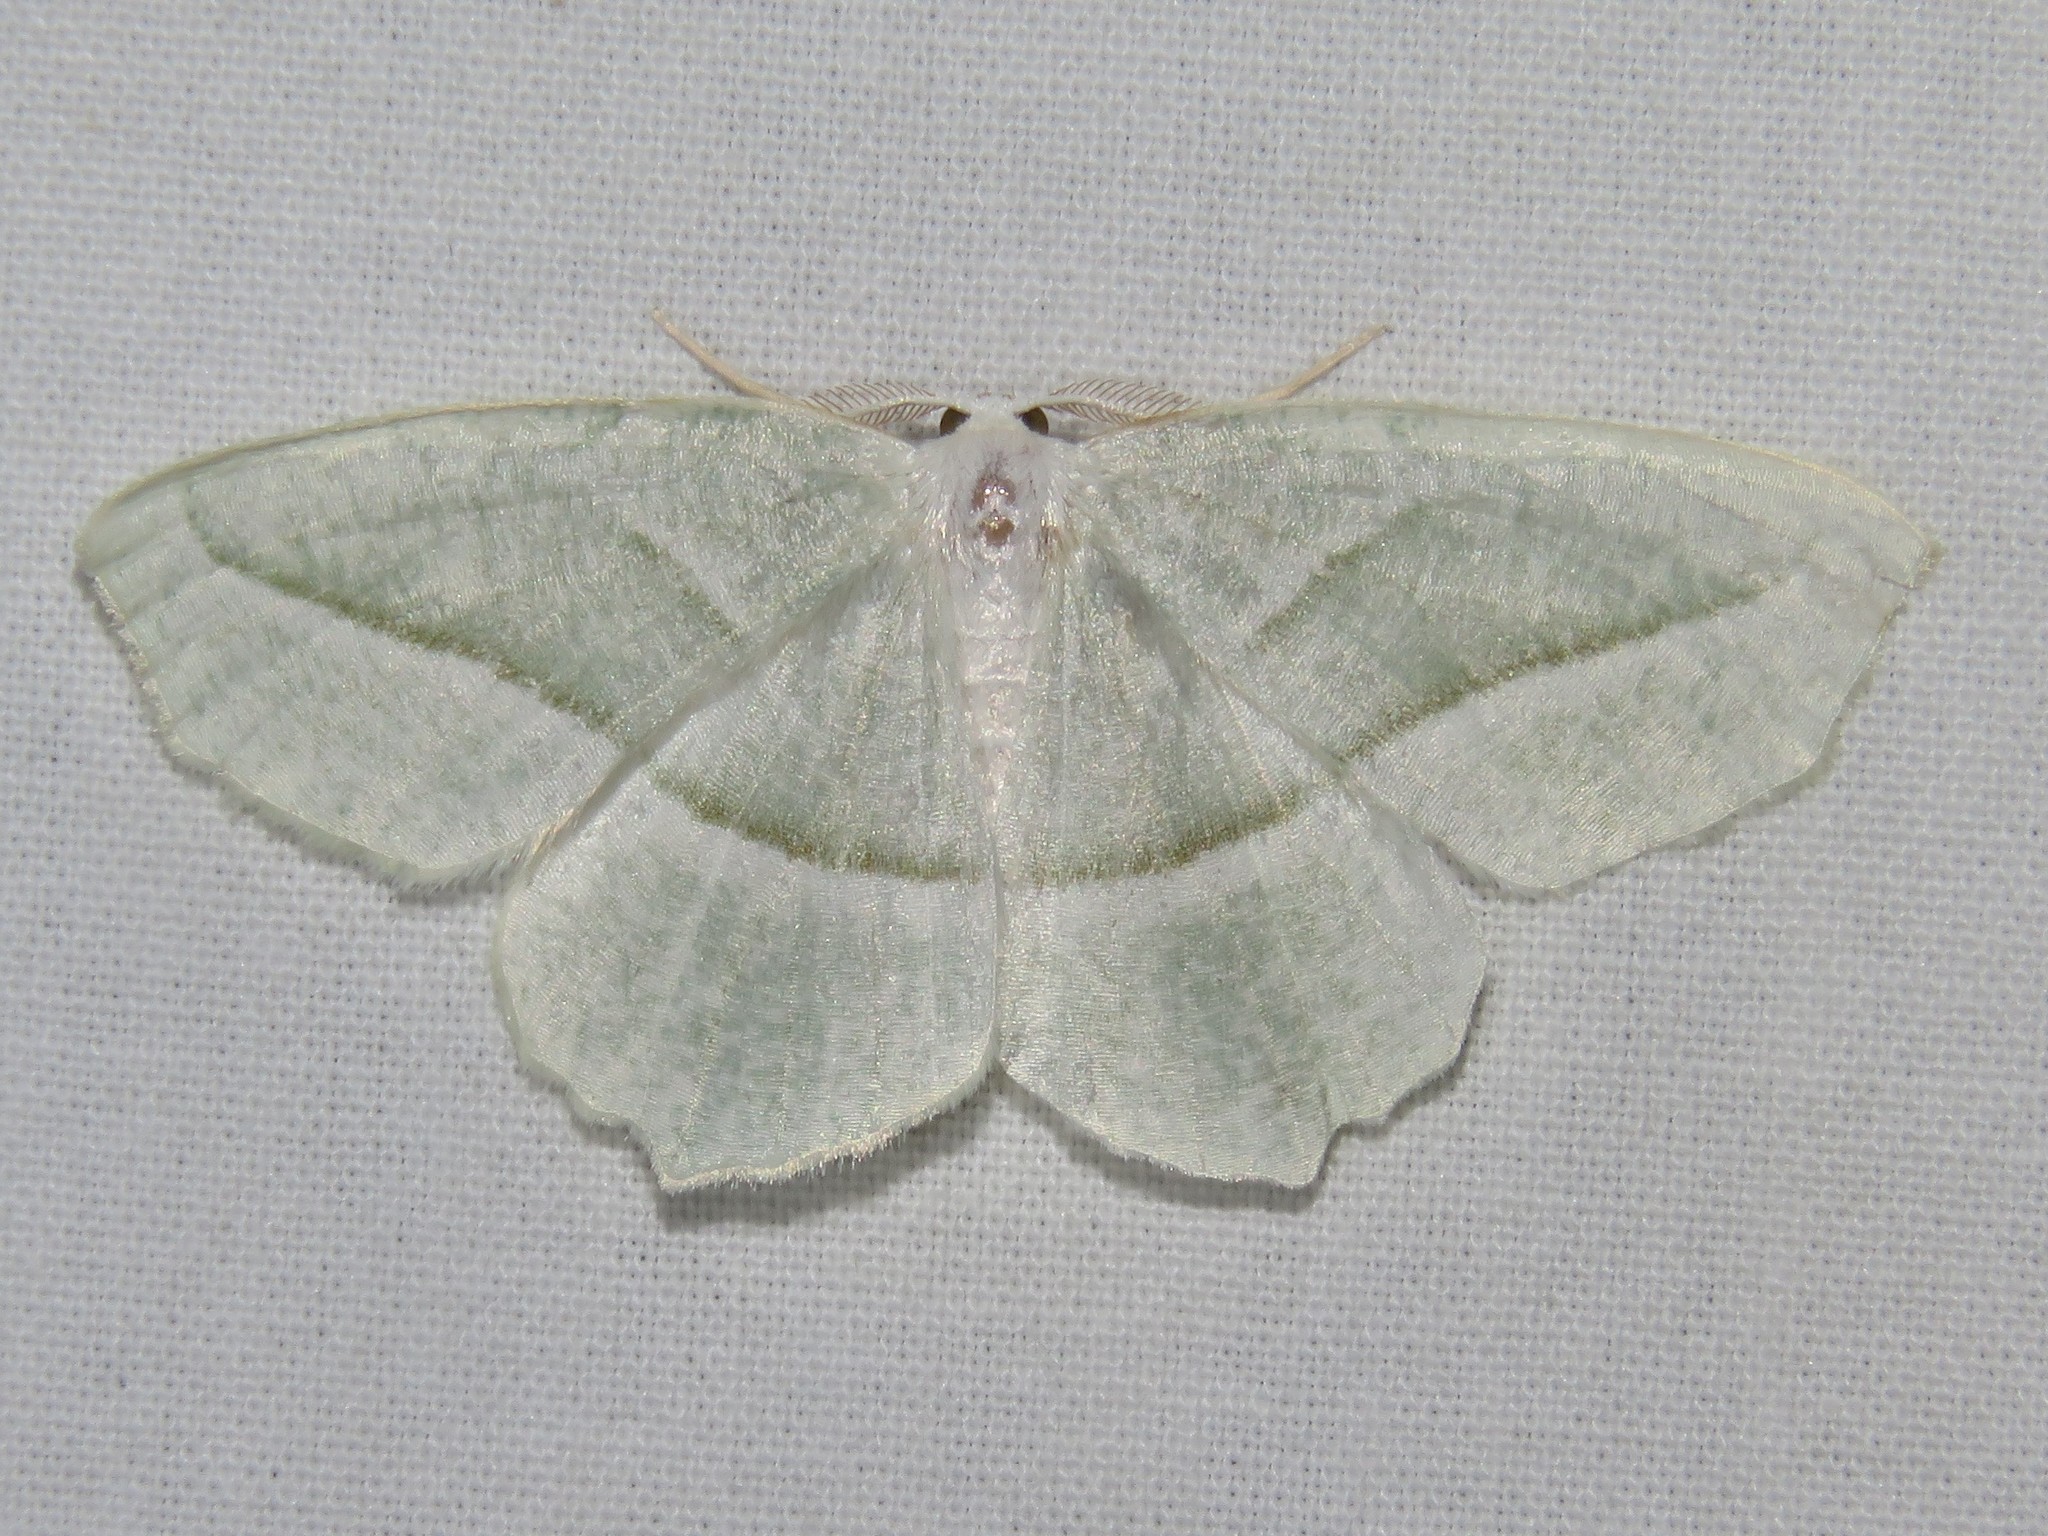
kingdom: Animalia
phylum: Arthropoda
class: Insecta
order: Lepidoptera
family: Geometridae
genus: Campaea
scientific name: Campaea perlata
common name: Fringed looper
